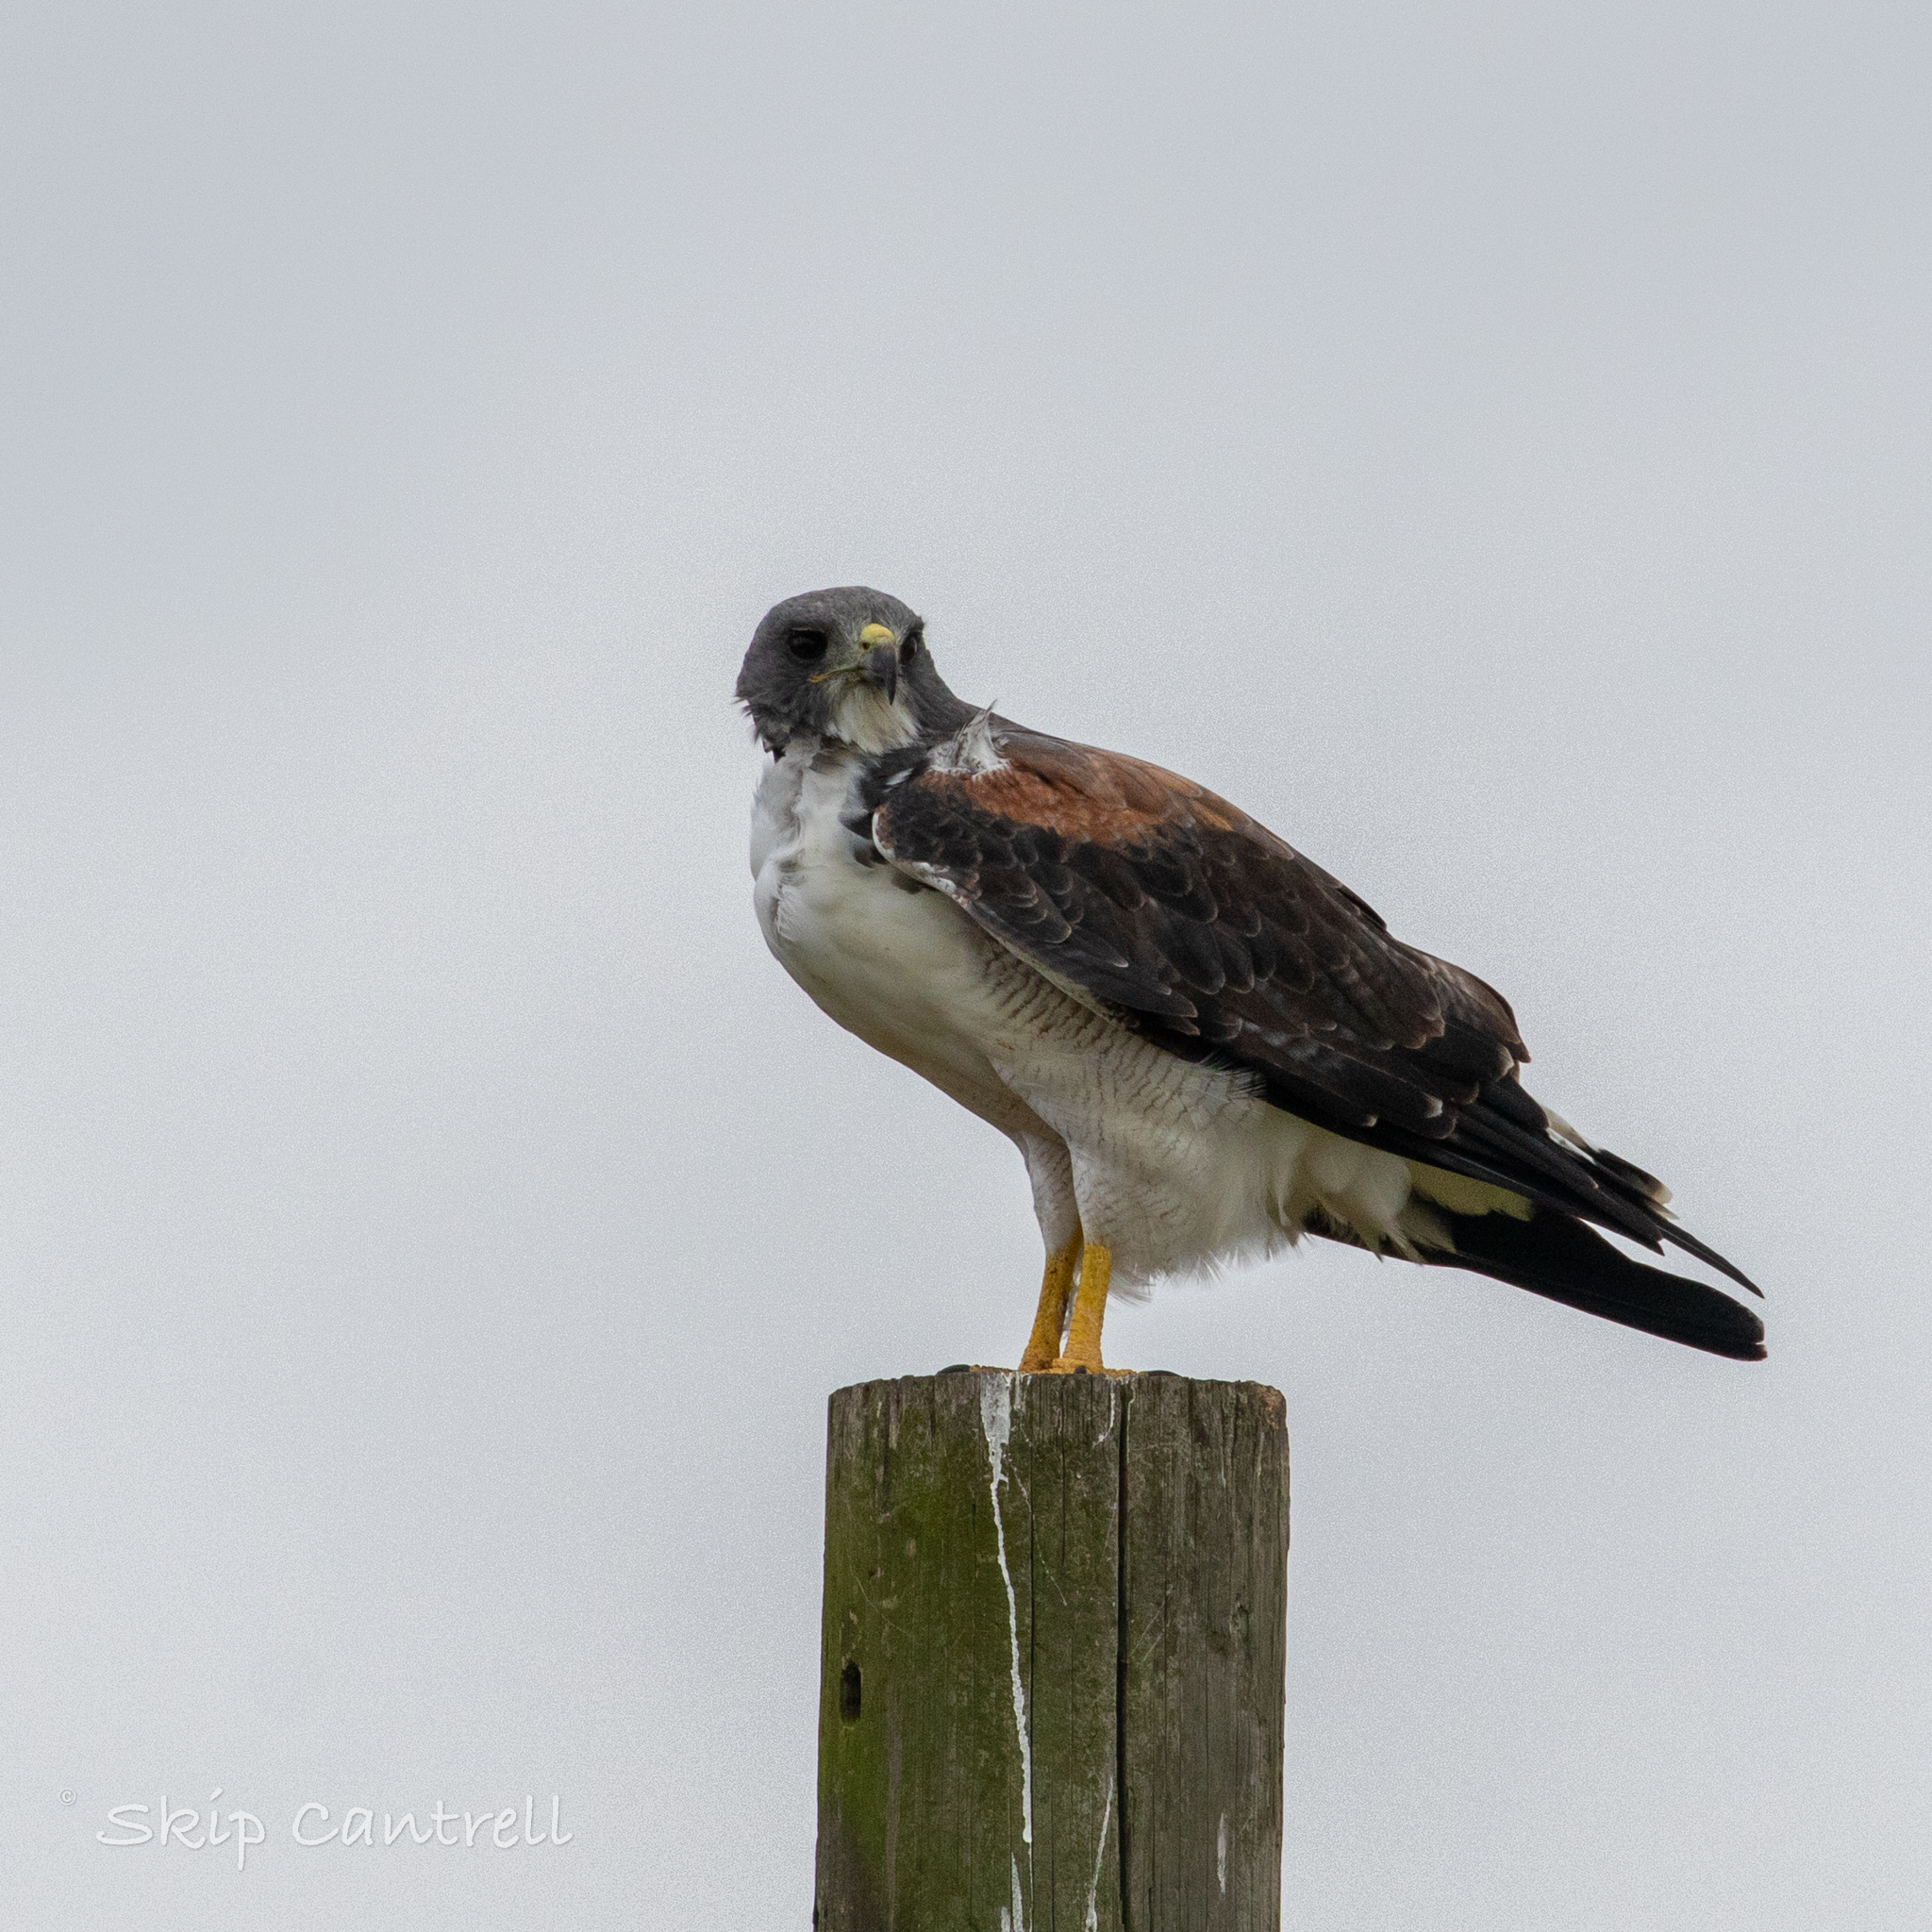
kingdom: Animalia
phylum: Chordata
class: Aves
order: Accipitriformes
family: Accipitridae
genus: Buteo
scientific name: Buteo albicaudatus
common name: White-tailed hawk
